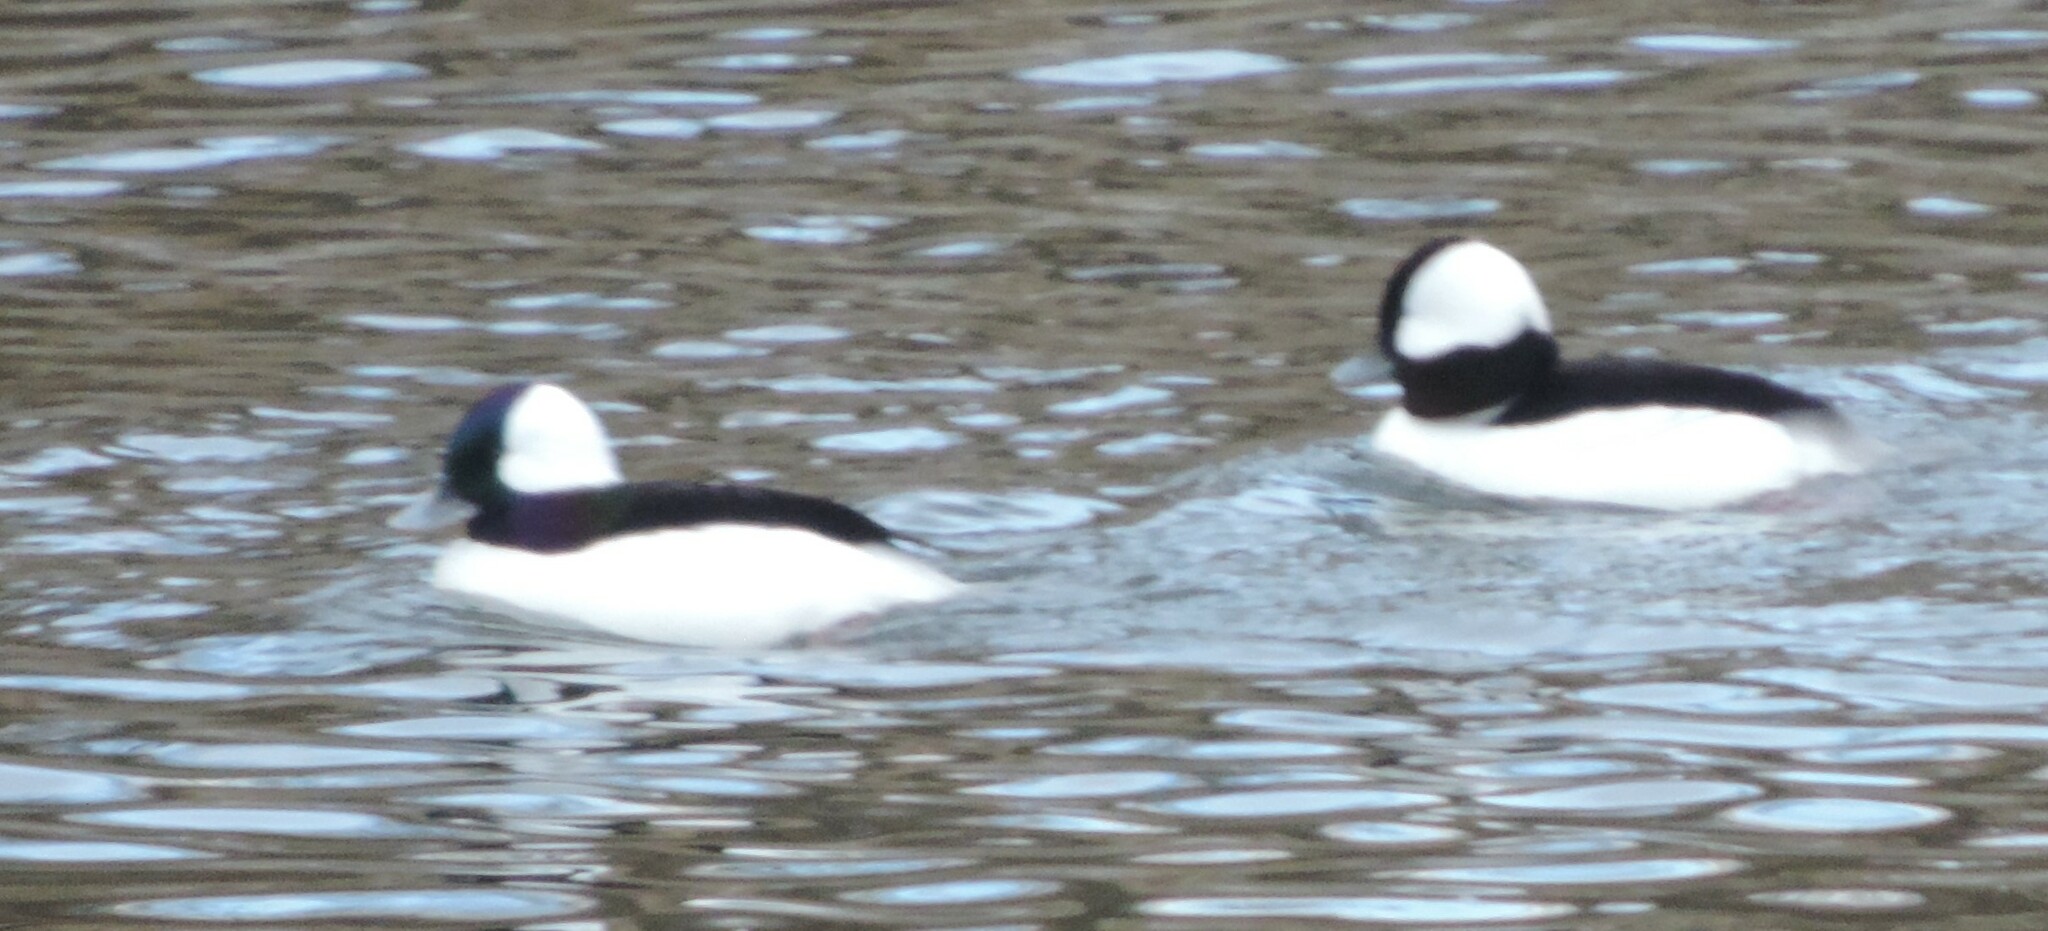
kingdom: Animalia
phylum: Chordata
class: Aves
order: Anseriformes
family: Anatidae
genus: Bucephala
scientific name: Bucephala albeola
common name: Bufflehead
